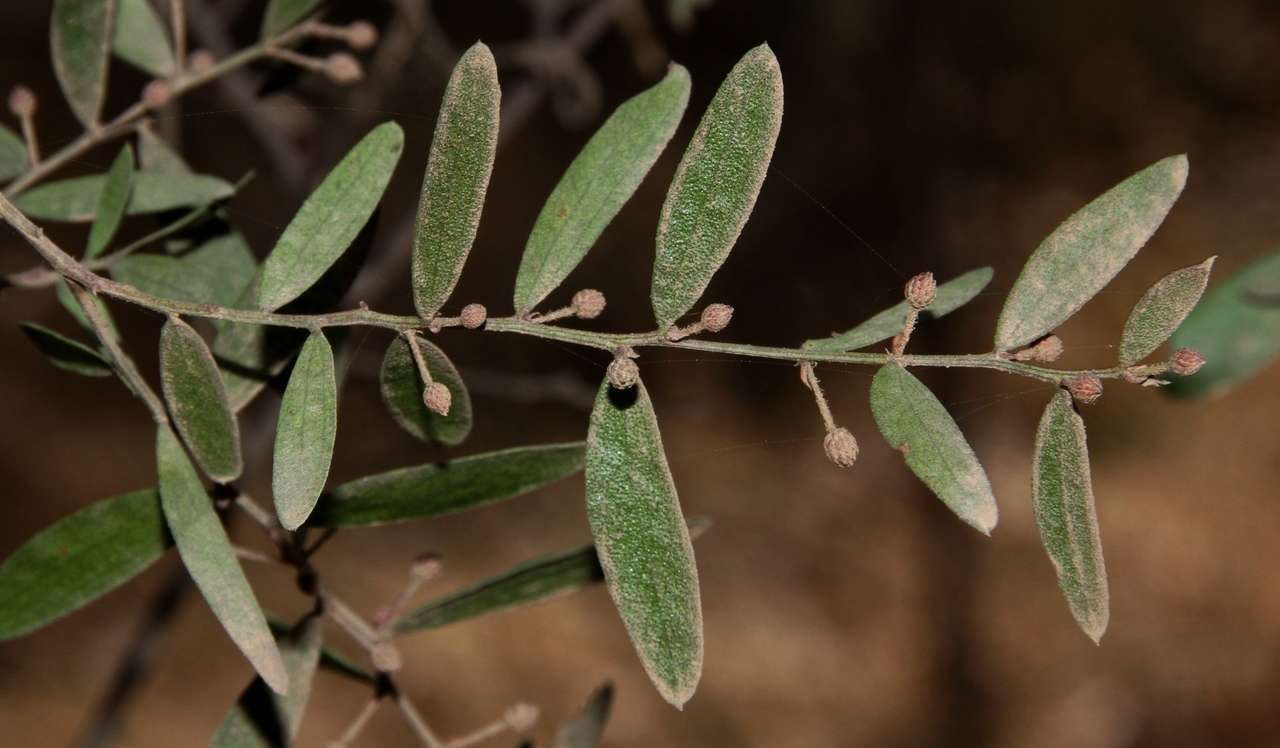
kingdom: Plantae
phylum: Tracheophyta
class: Magnoliopsida
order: Fabales
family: Fabaceae
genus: Acacia
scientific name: Acacia verniciflua
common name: Varnish wattle
